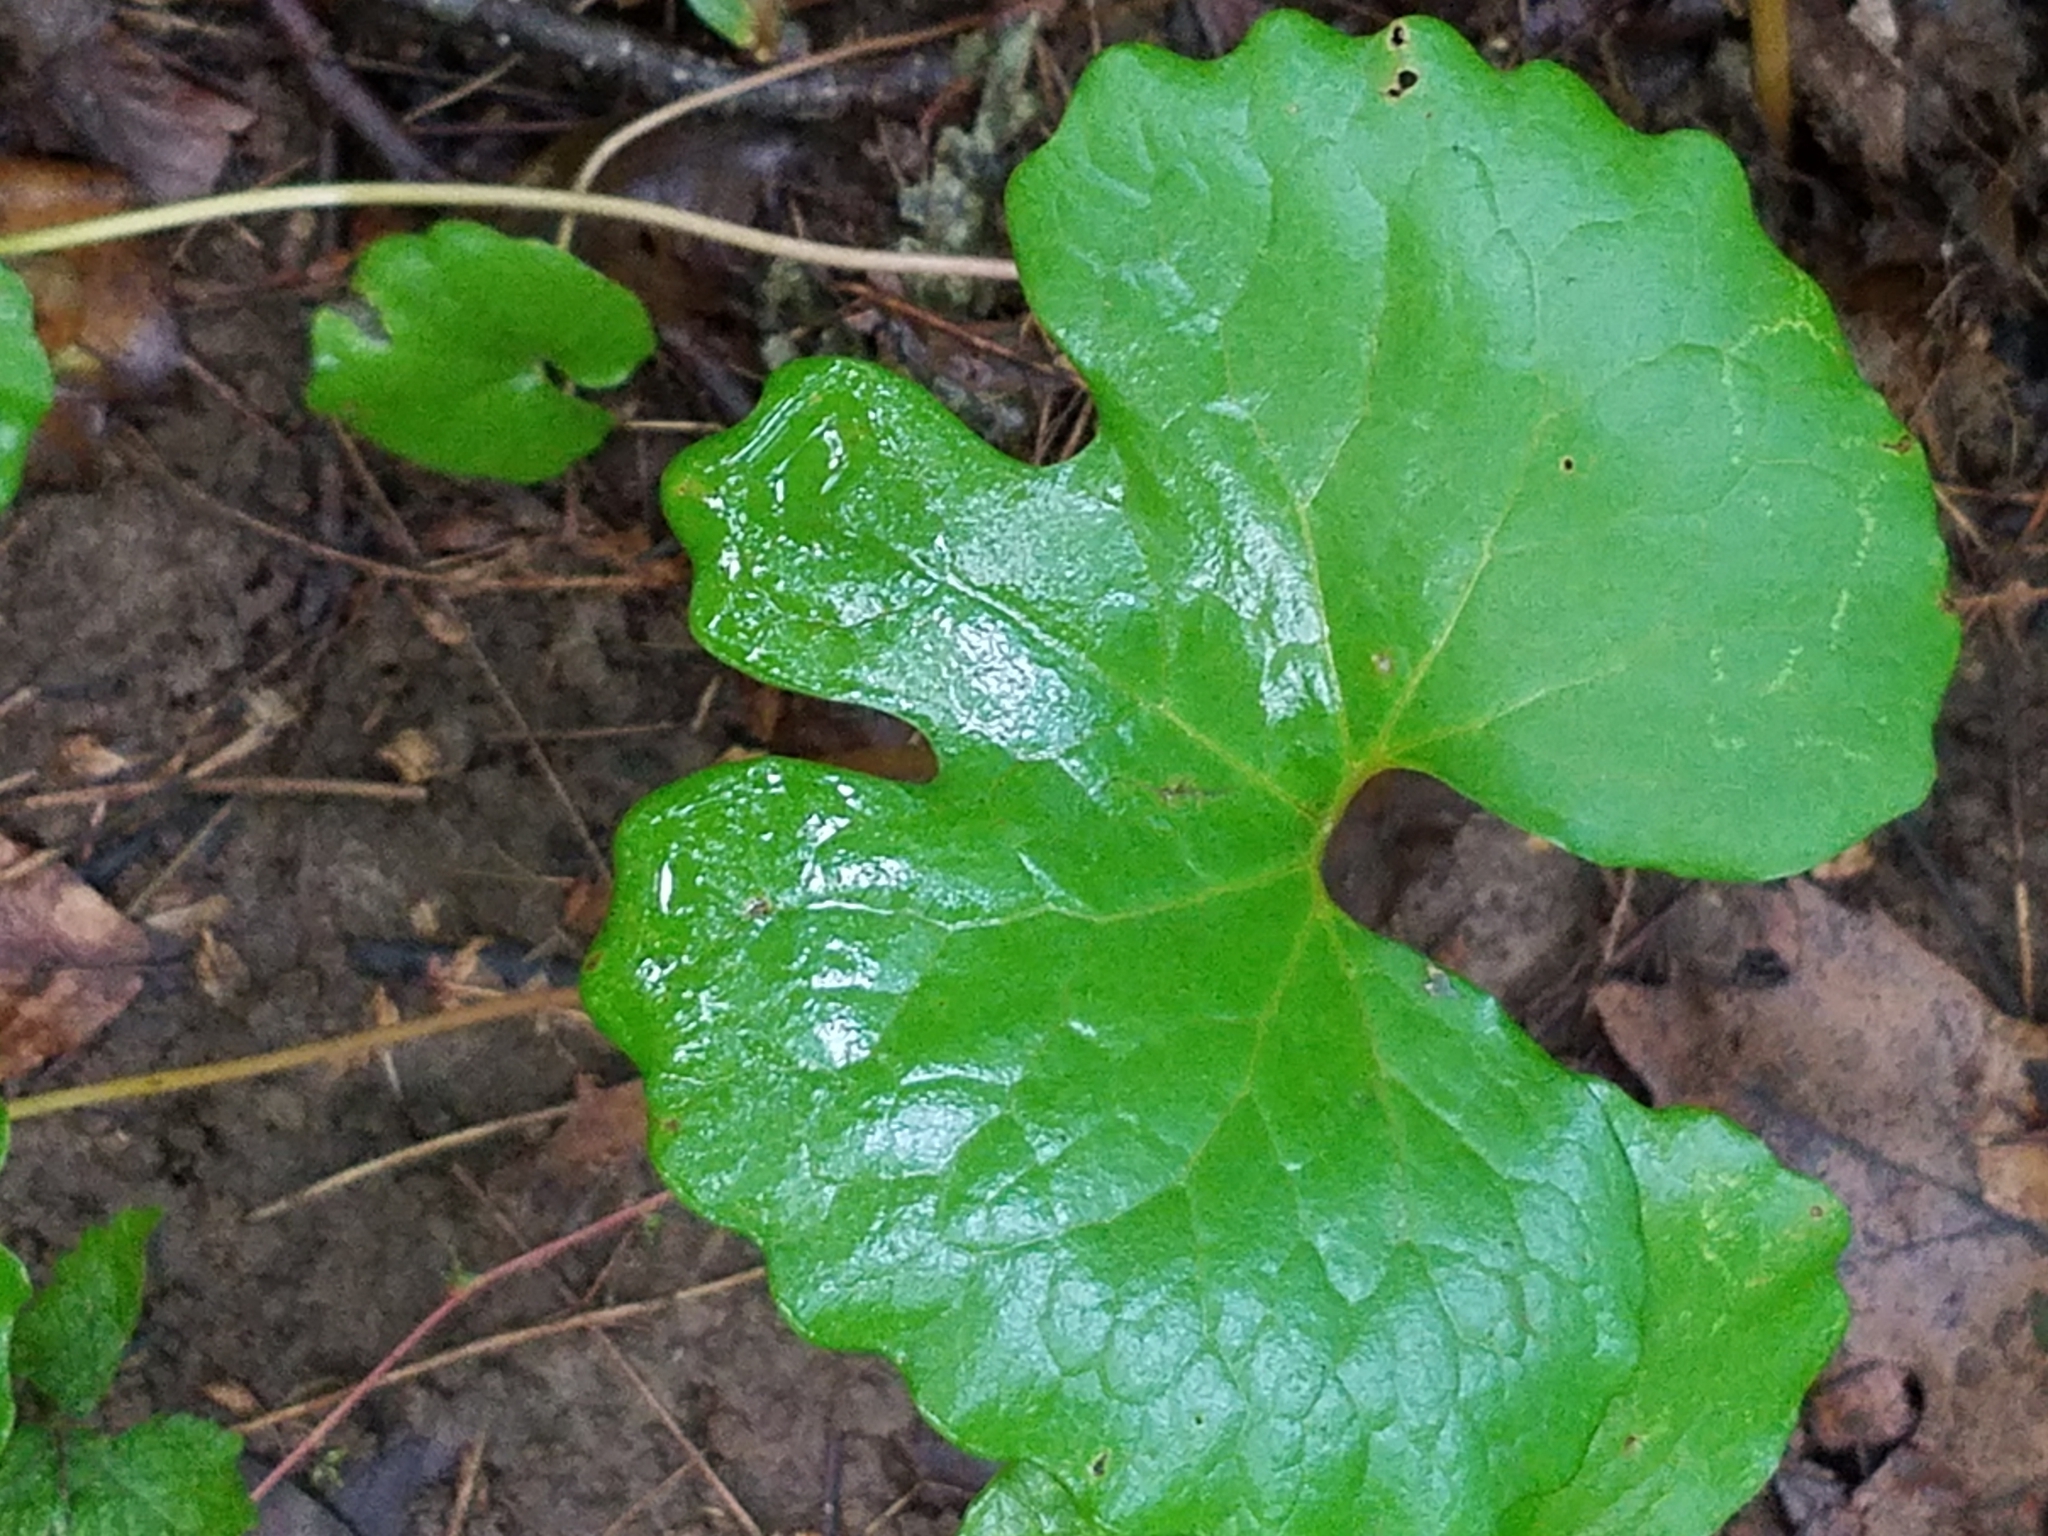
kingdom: Plantae
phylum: Tracheophyta
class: Magnoliopsida
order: Ranunculales
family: Papaveraceae
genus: Sanguinaria
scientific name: Sanguinaria canadensis
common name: Bloodroot
